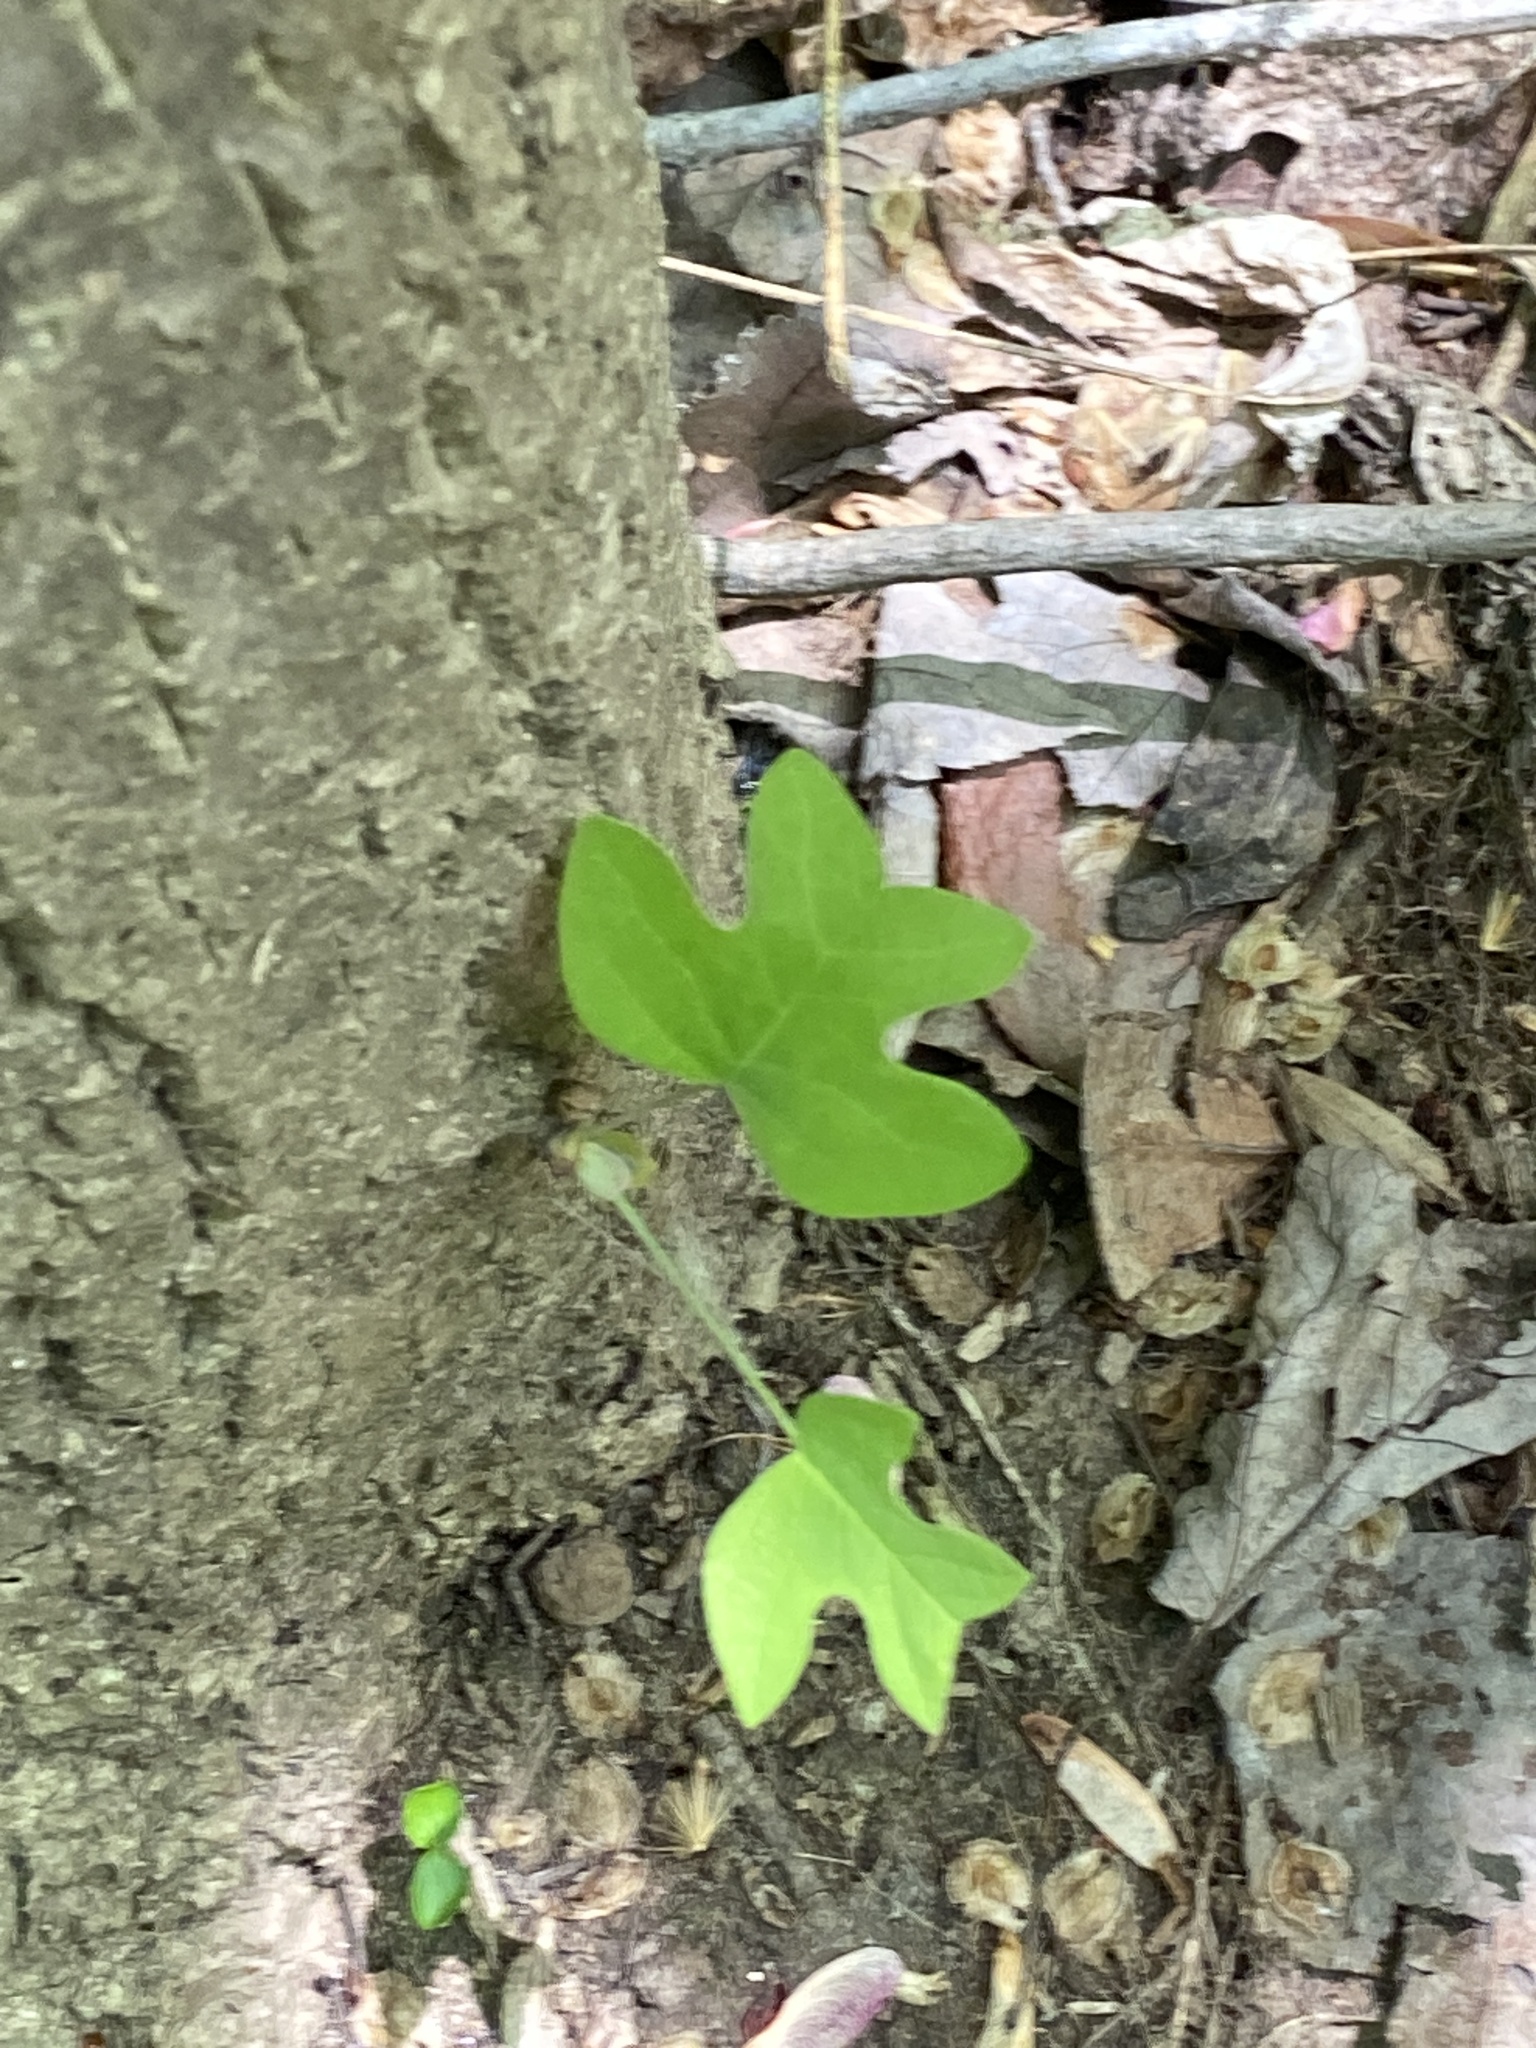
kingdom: Plantae
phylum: Tracheophyta
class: Magnoliopsida
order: Magnoliales
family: Magnoliaceae
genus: Liriodendron
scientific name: Liriodendron tulipifera
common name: Tulip tree
